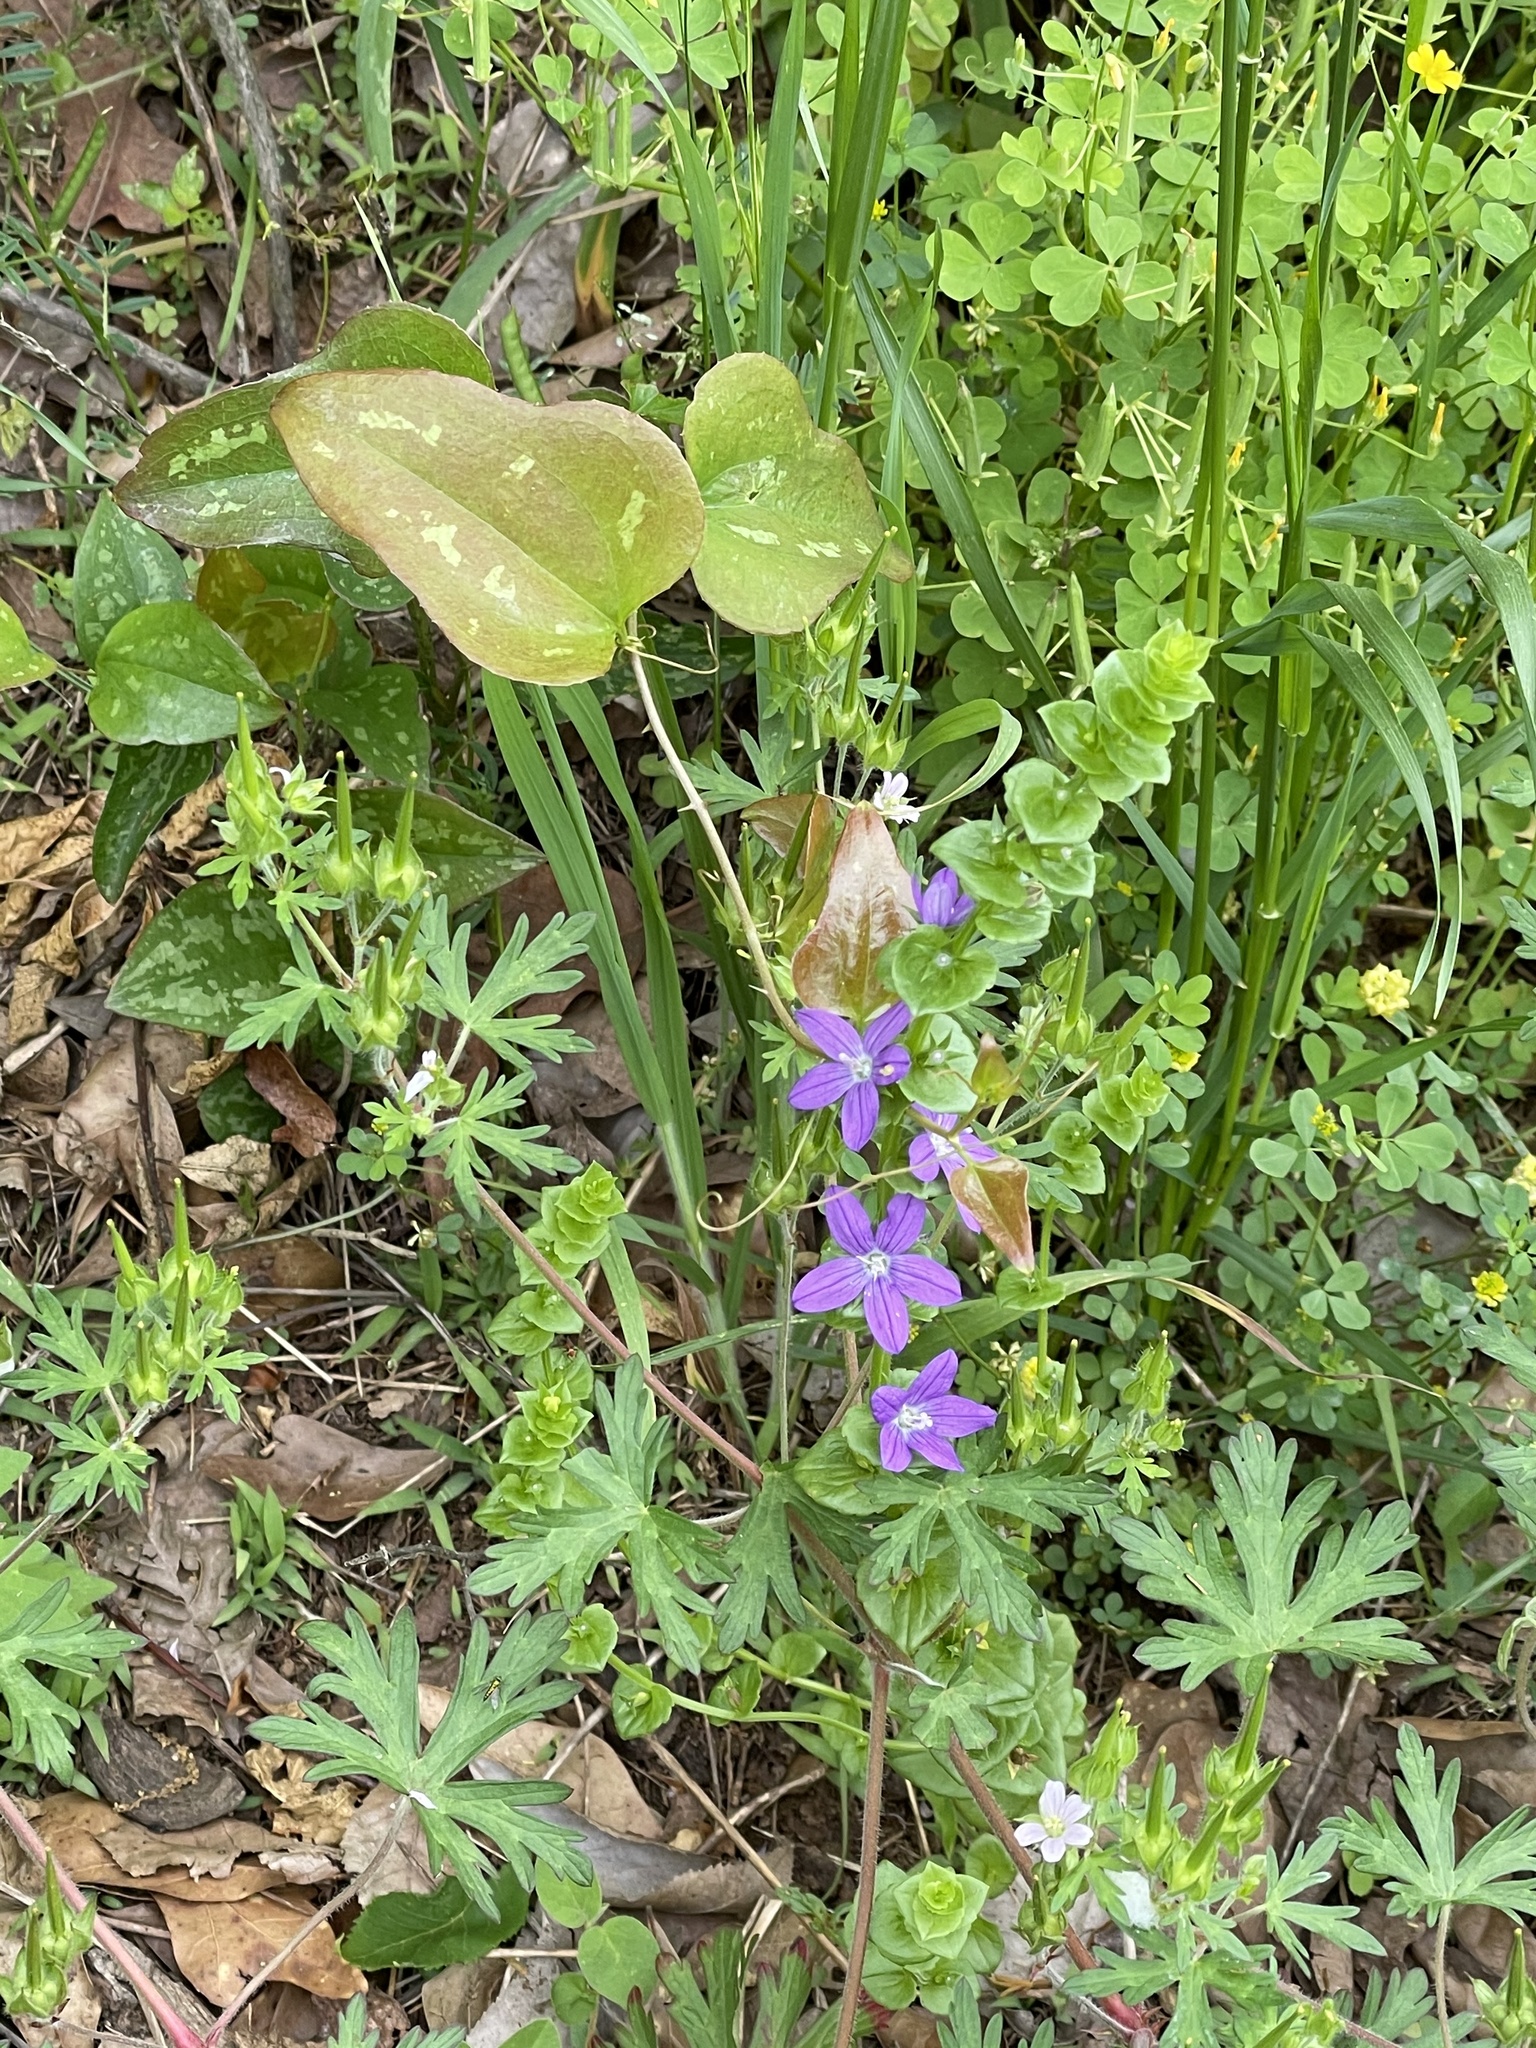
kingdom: Plantae
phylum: Tracheophyta
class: Magnoliopsida
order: Asterales
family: Campanulaceae
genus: Triodanis
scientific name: Triodanis perfoliata
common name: Clasping venus' looking-glass
